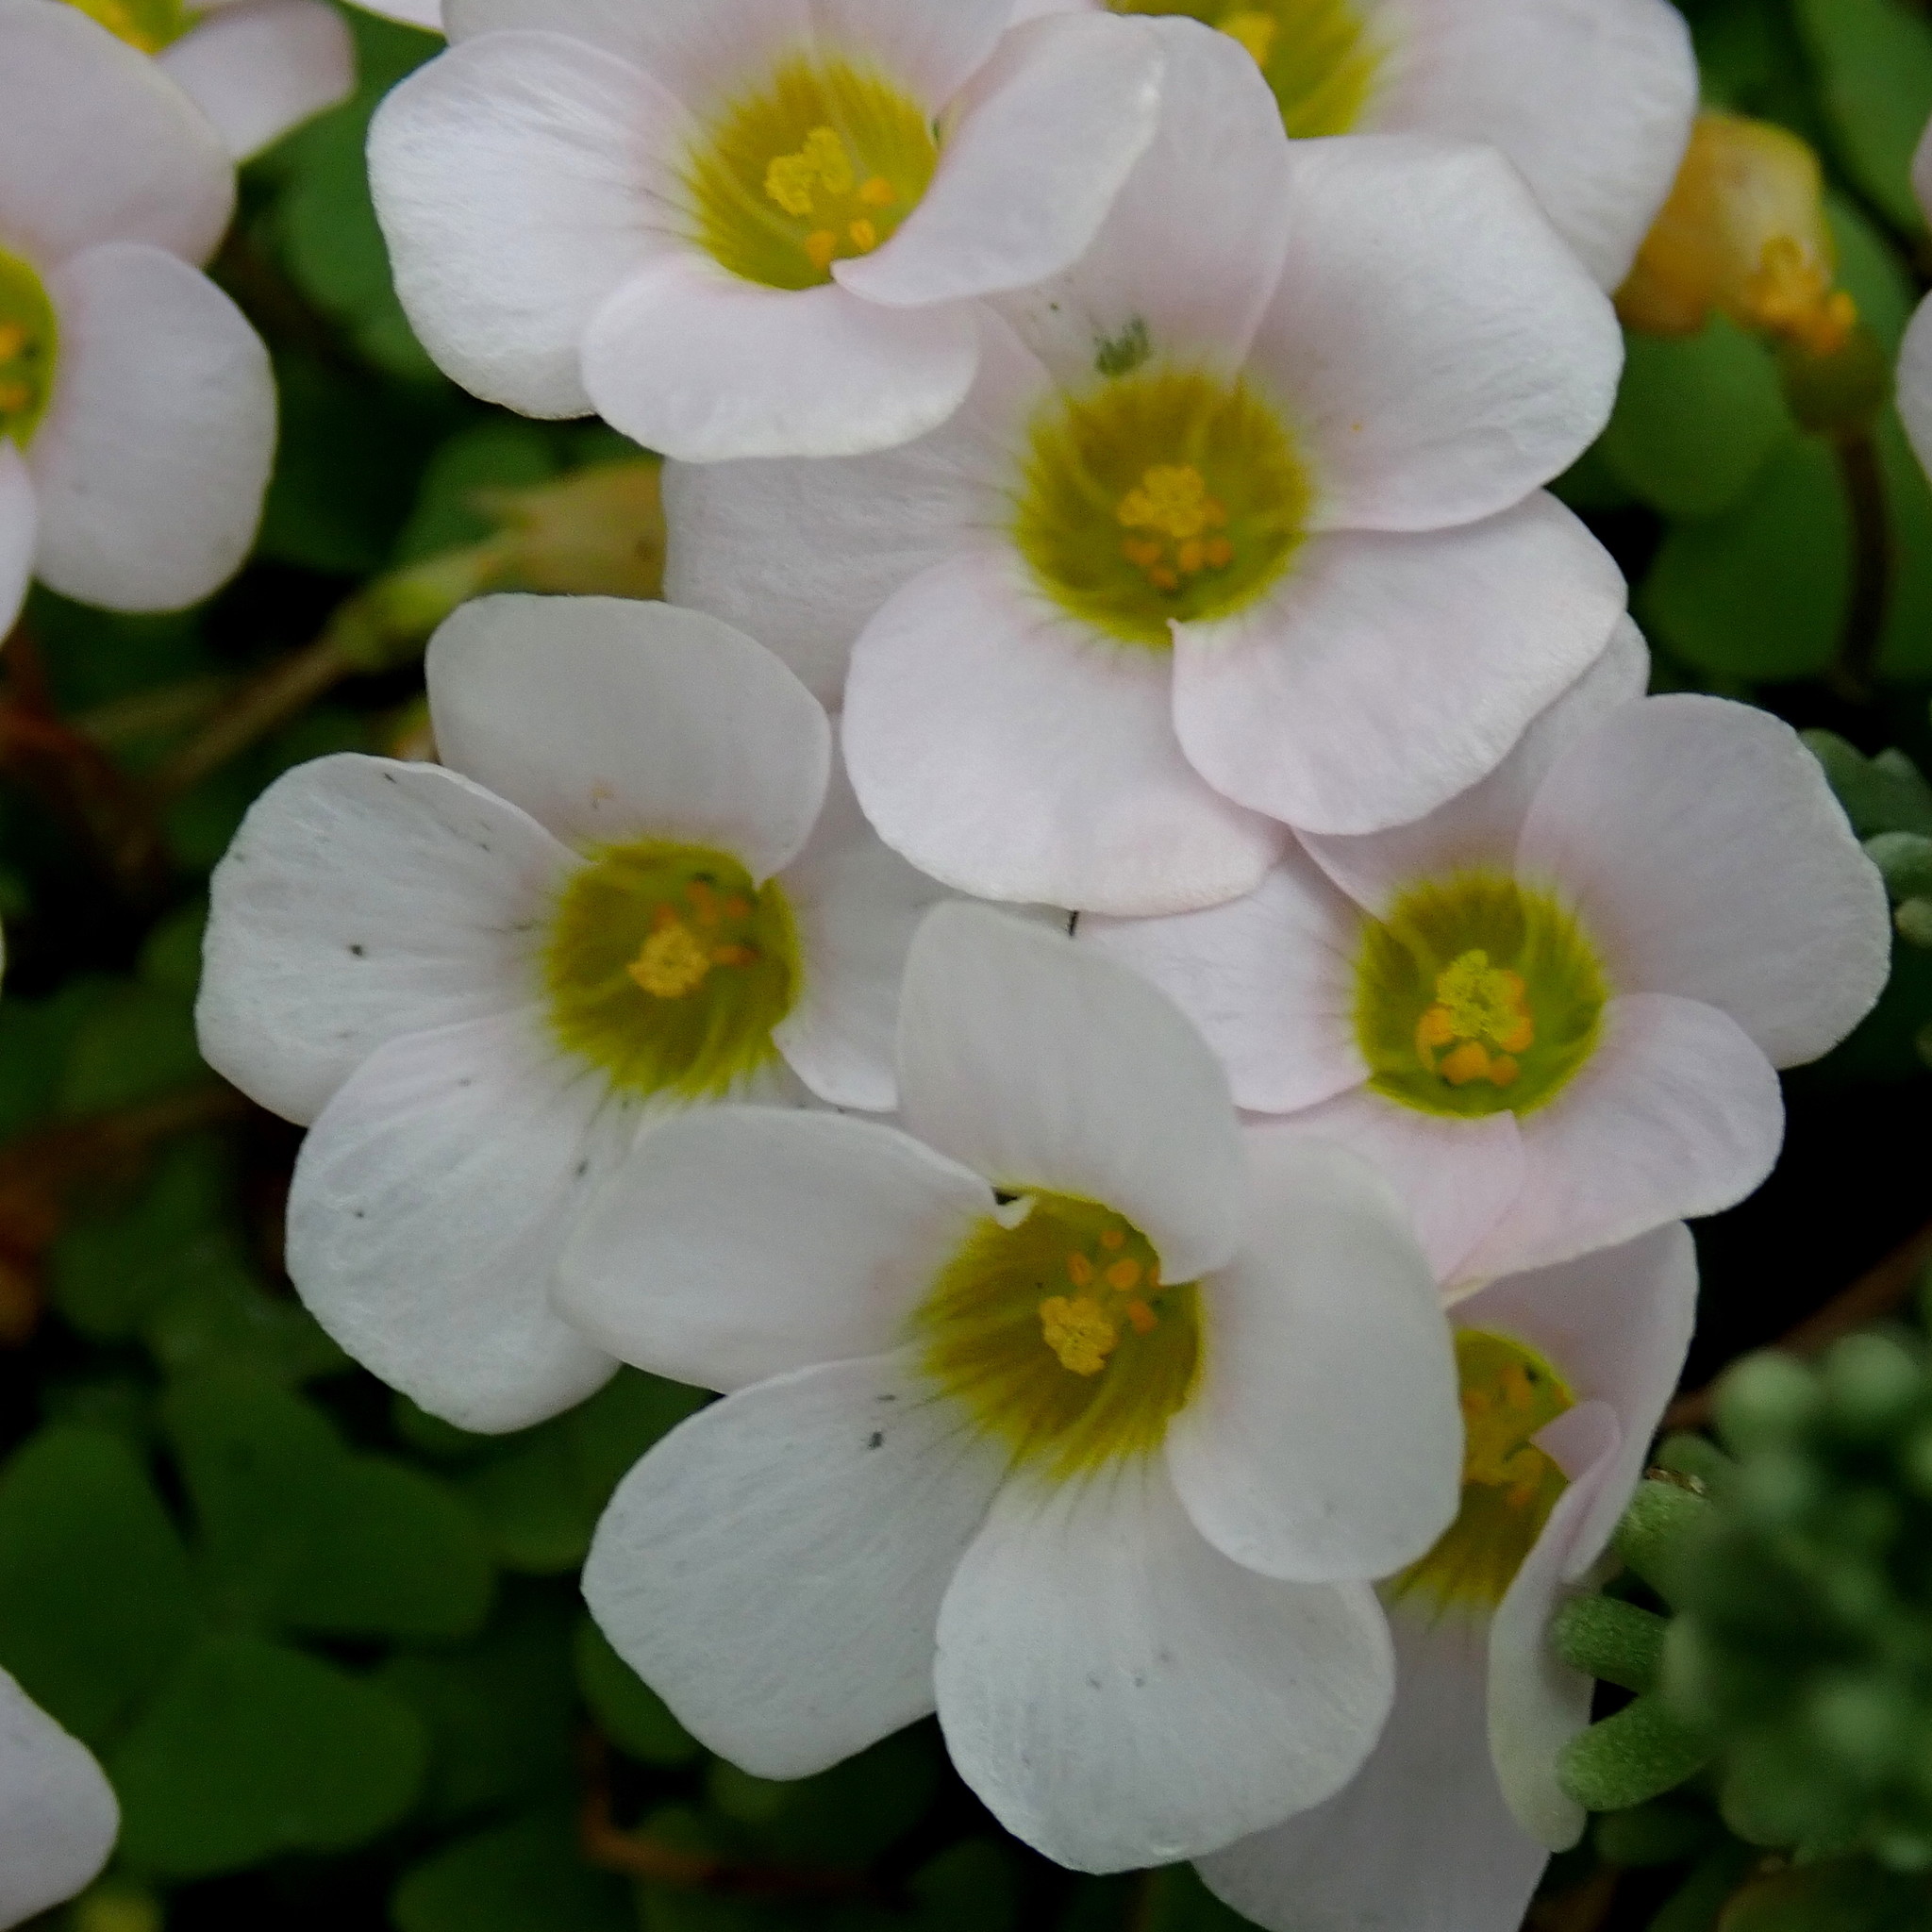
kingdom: Plantae
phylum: Tracheophyta
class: Magnoliopsida
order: Oxalidales
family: Oxalidaceae
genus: Oxalis
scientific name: Oxalis punctata
